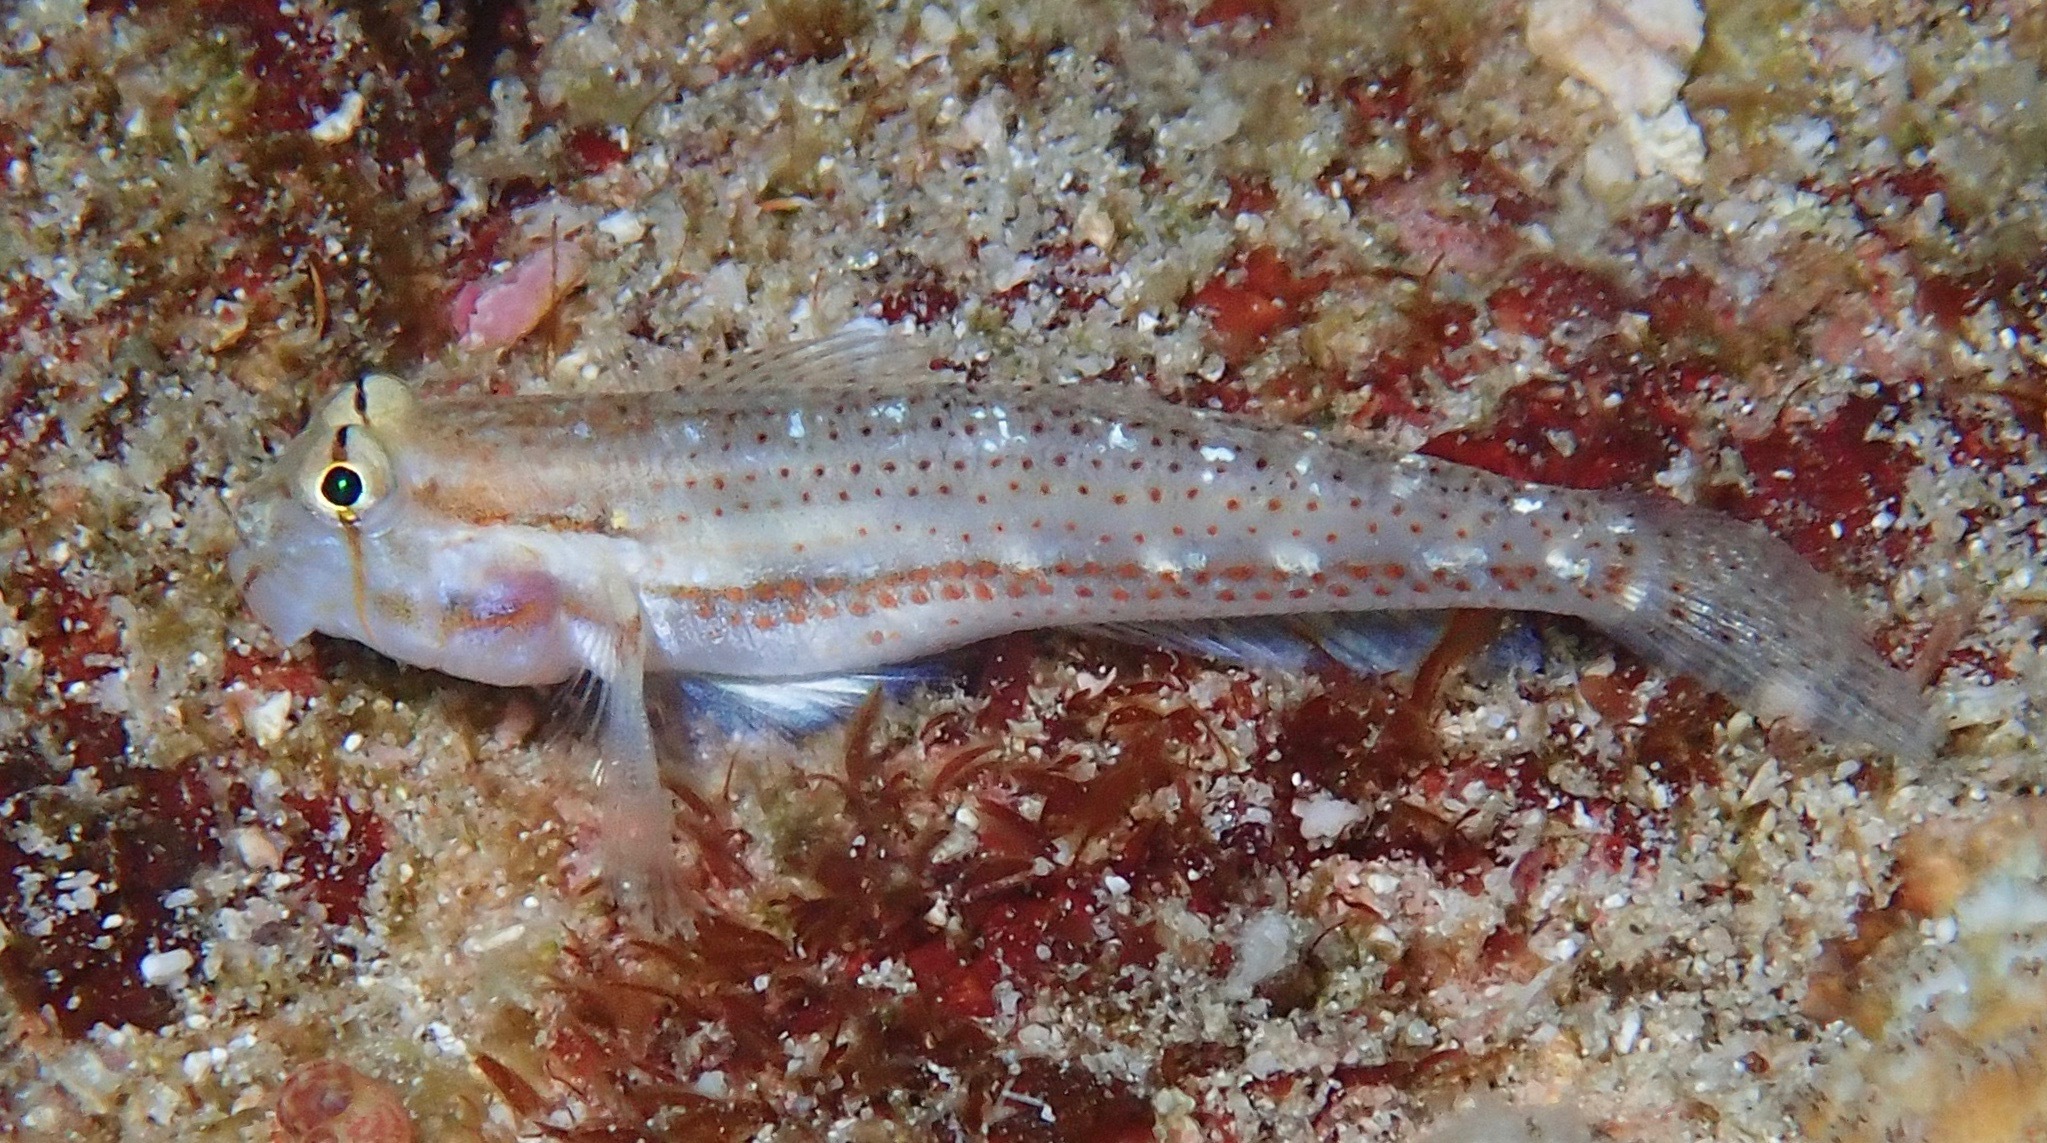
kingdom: Animalia
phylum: Chordata
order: Perciformes
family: Gobiidae
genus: Gnatholepis
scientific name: Gnatholepis cauerensis
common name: Bridled goby
